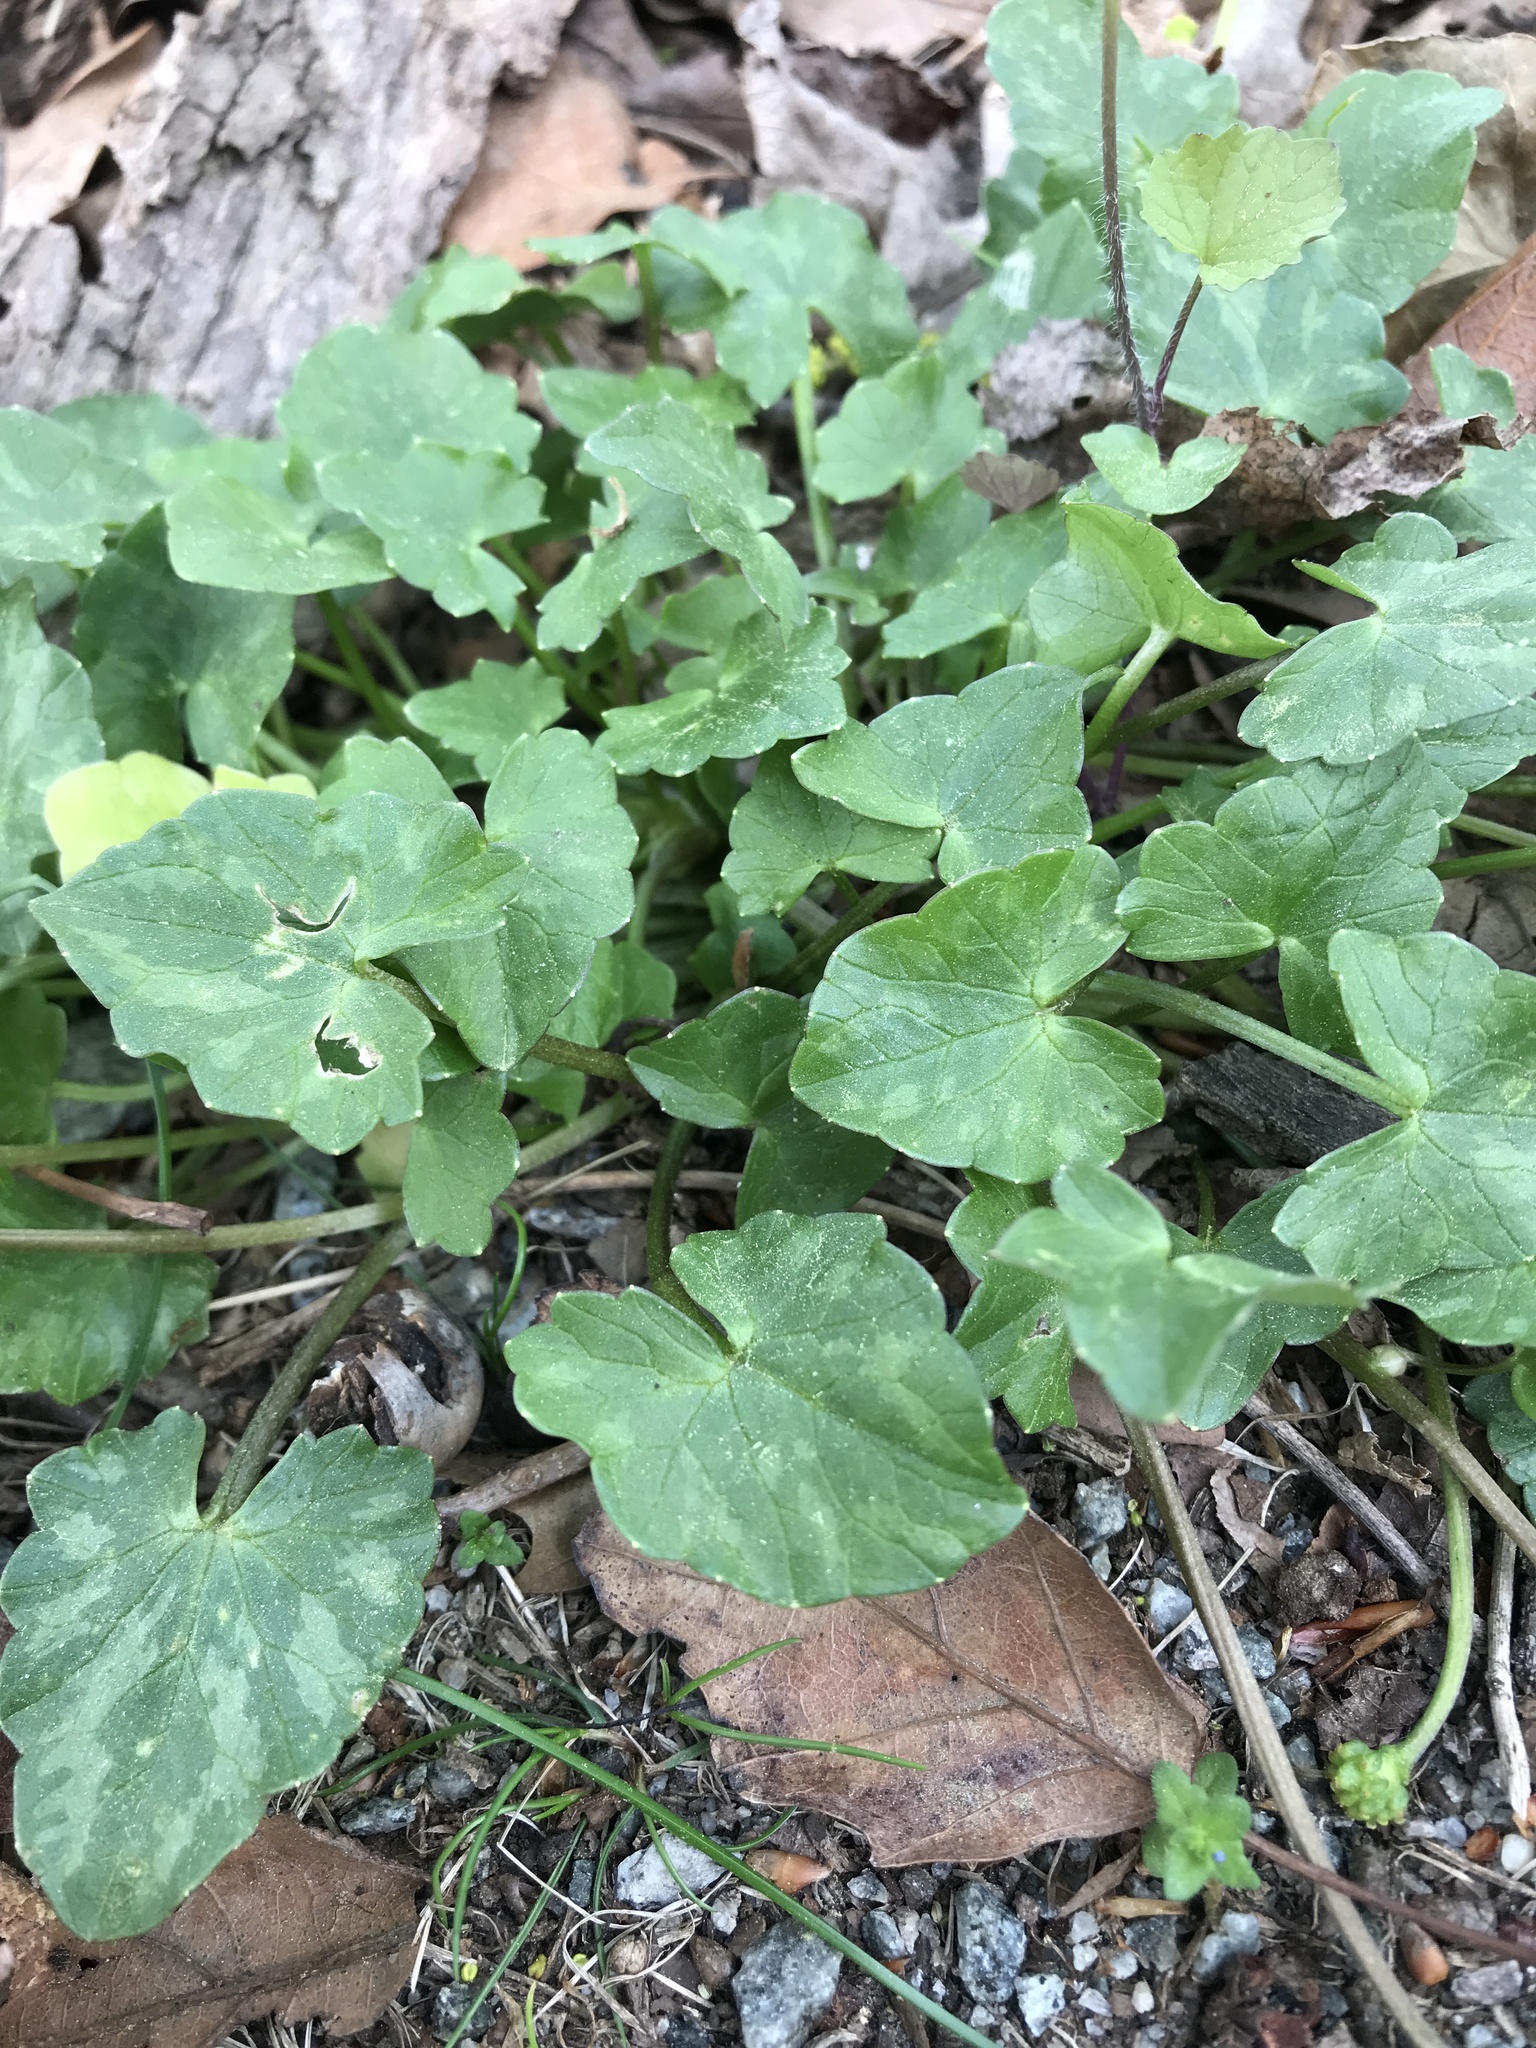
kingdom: Plantae
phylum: Tracheophyta
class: Magnoliopsida
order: Ranunculales
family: Ranunculaceae
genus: Ficaria
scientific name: Ficaria verna
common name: Lesser celandine
